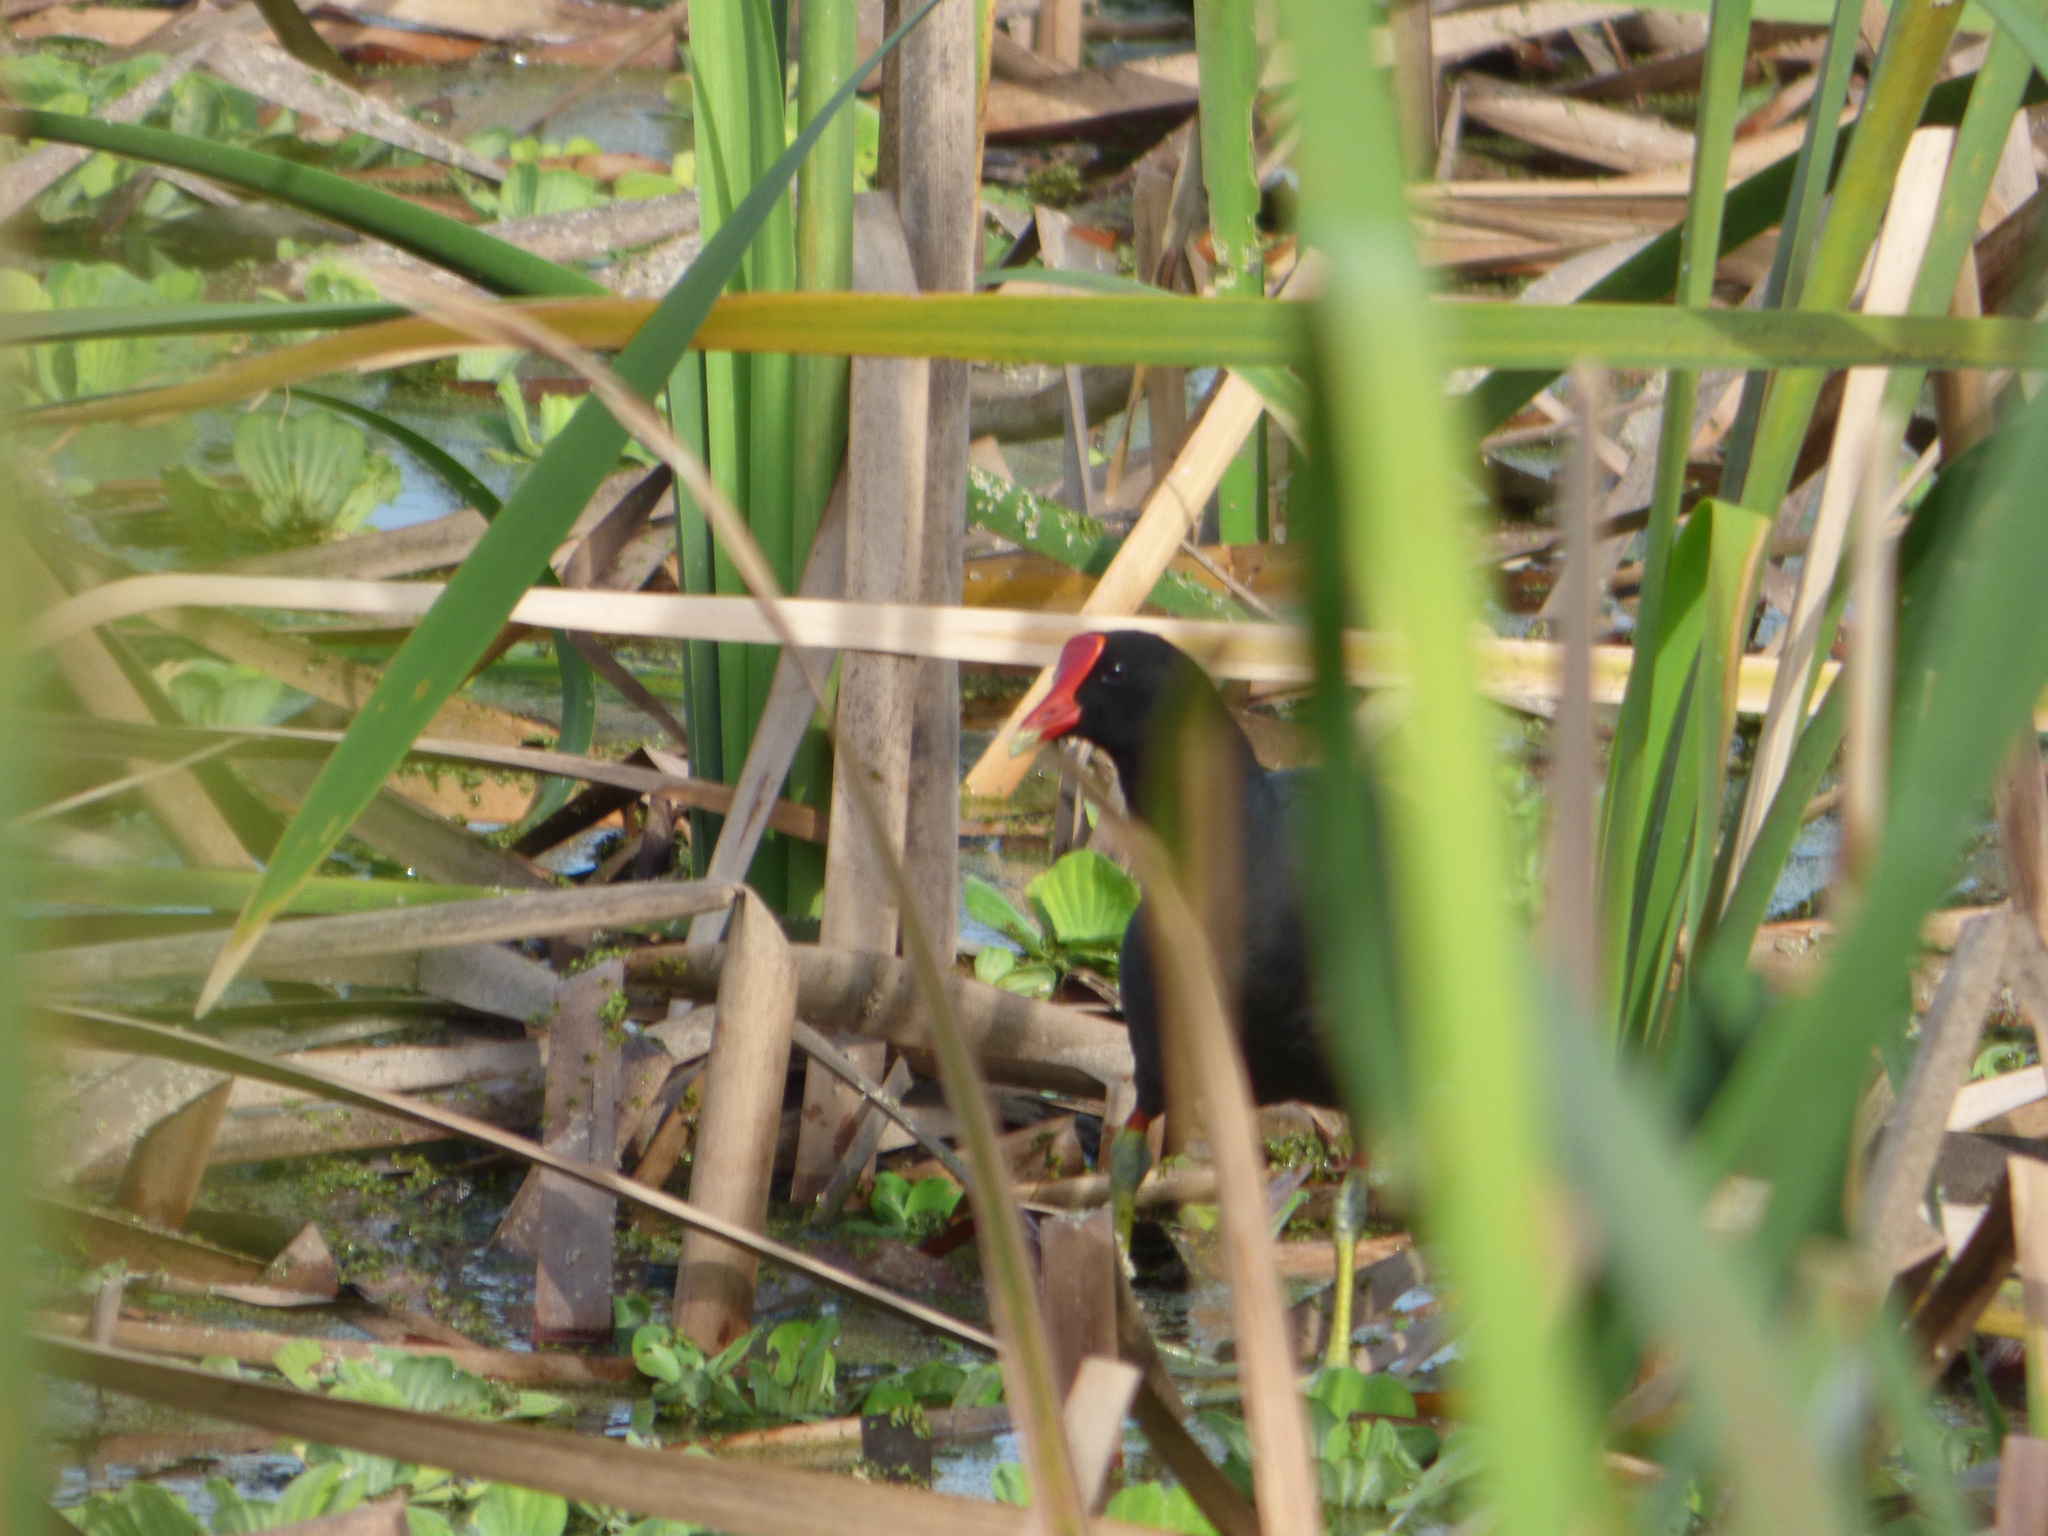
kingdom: Animalia
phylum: Chordata
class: Aves
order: Gruiformes
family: Rallidae
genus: Gallinula
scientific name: Gallinula chloropus
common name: Common moorhen
